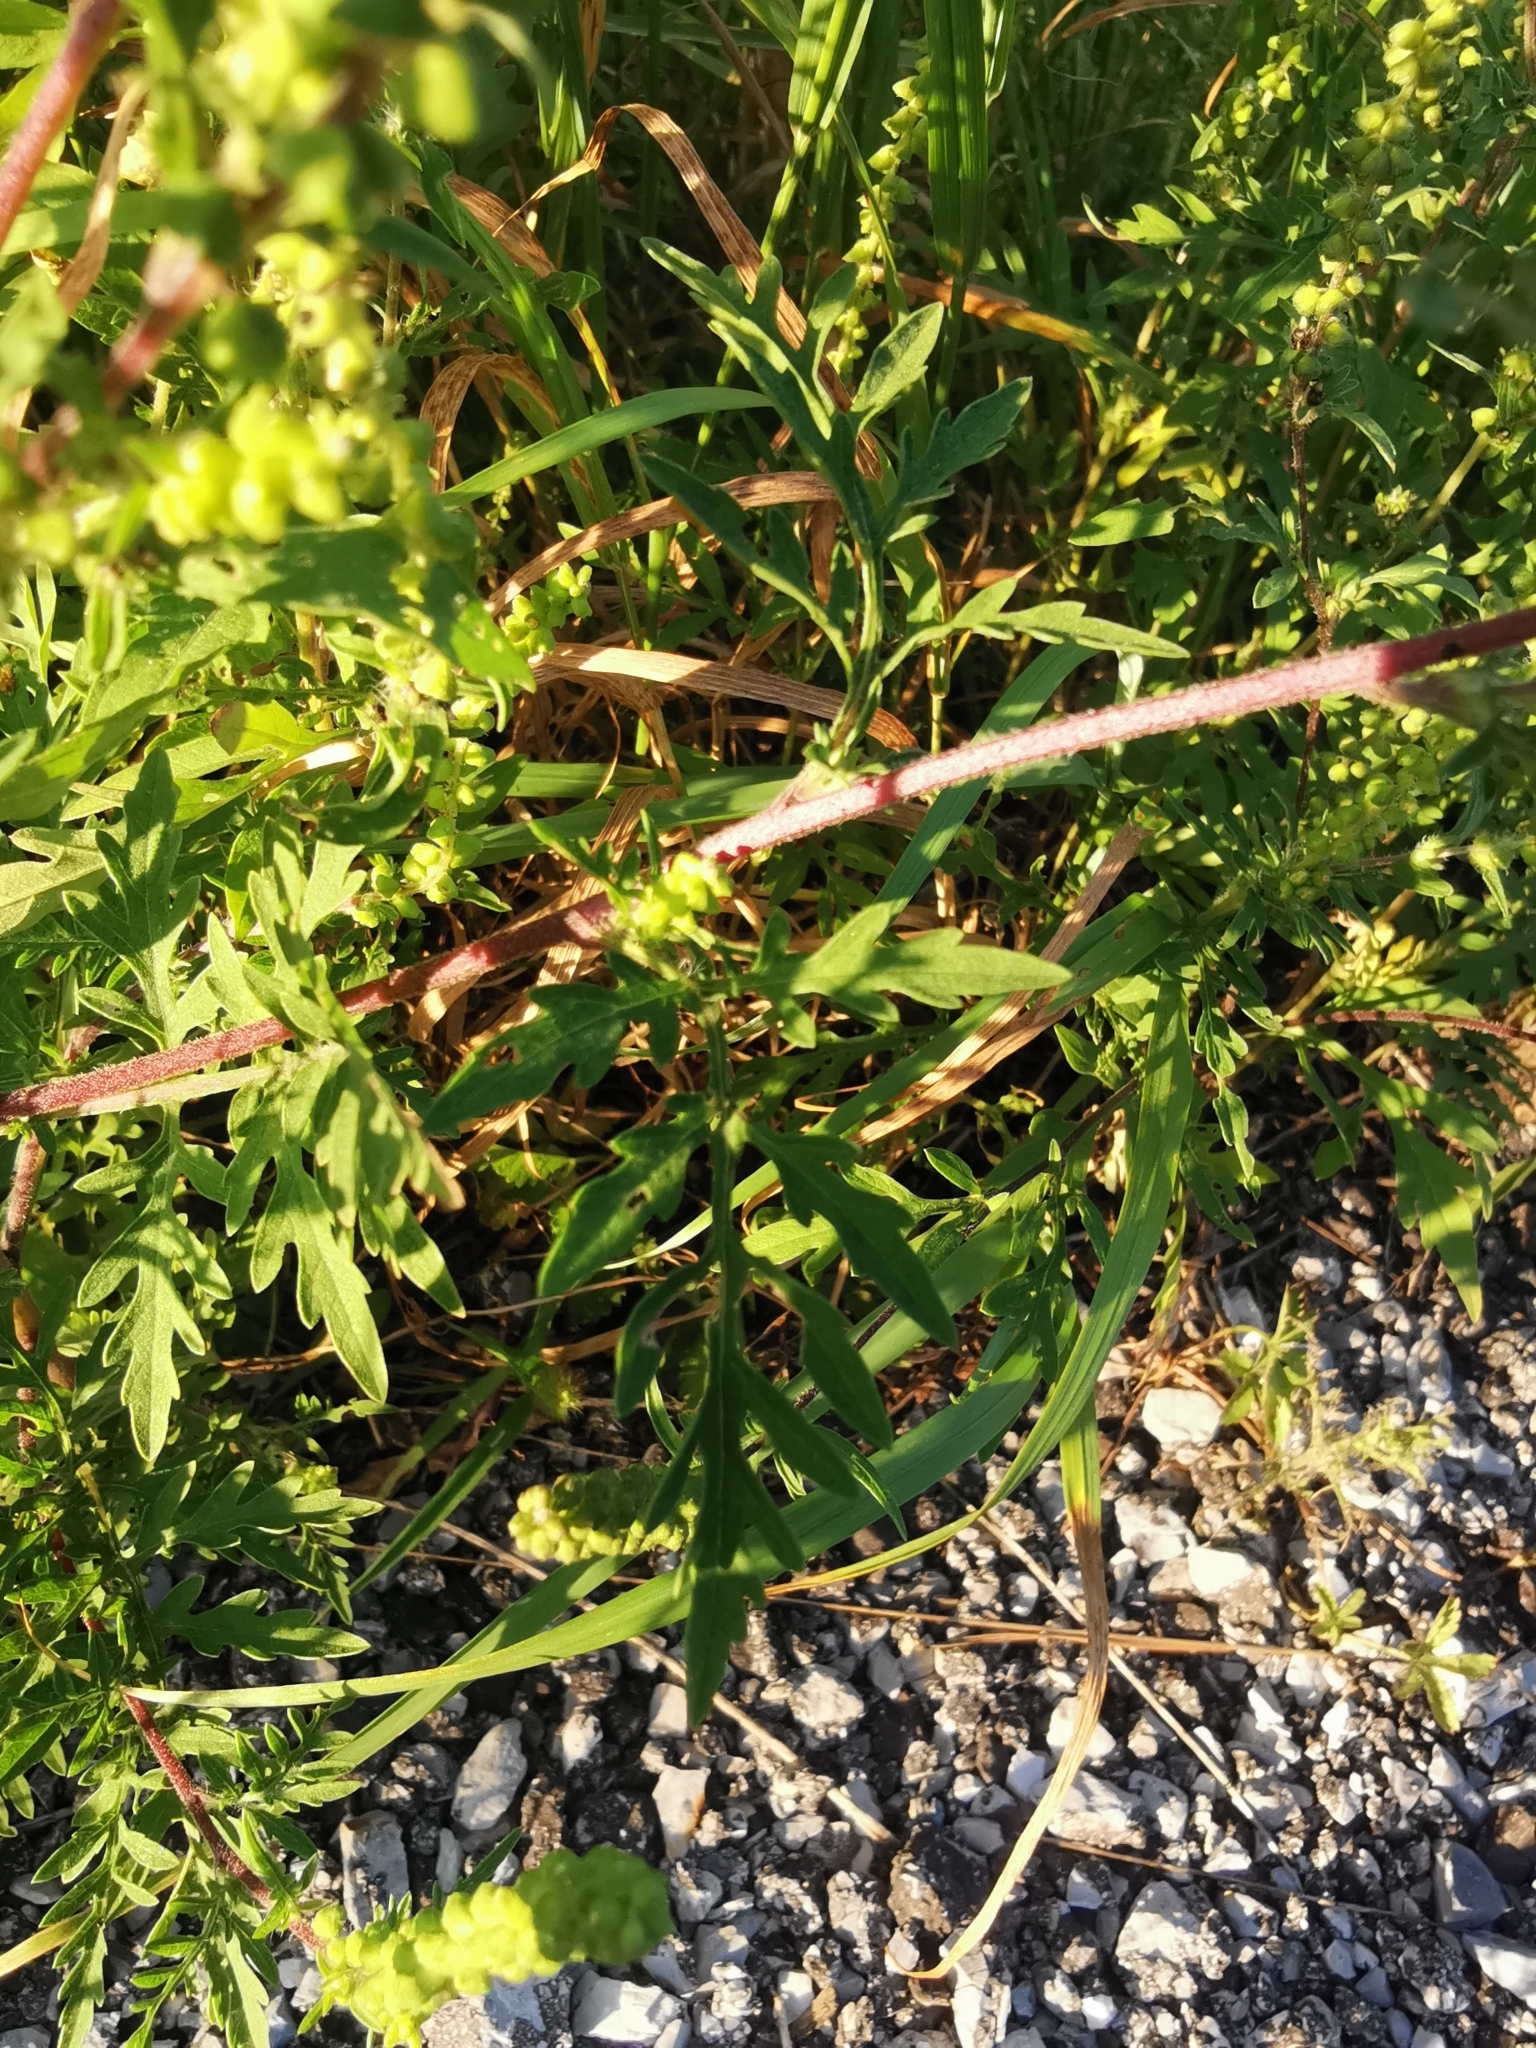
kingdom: Plantae
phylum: Tracheophyta
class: Magnoliopsida
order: Asterales
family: Asteraceae
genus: Ambrosia
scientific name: Ambrosia artemisiifolia
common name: Annual ragweed
